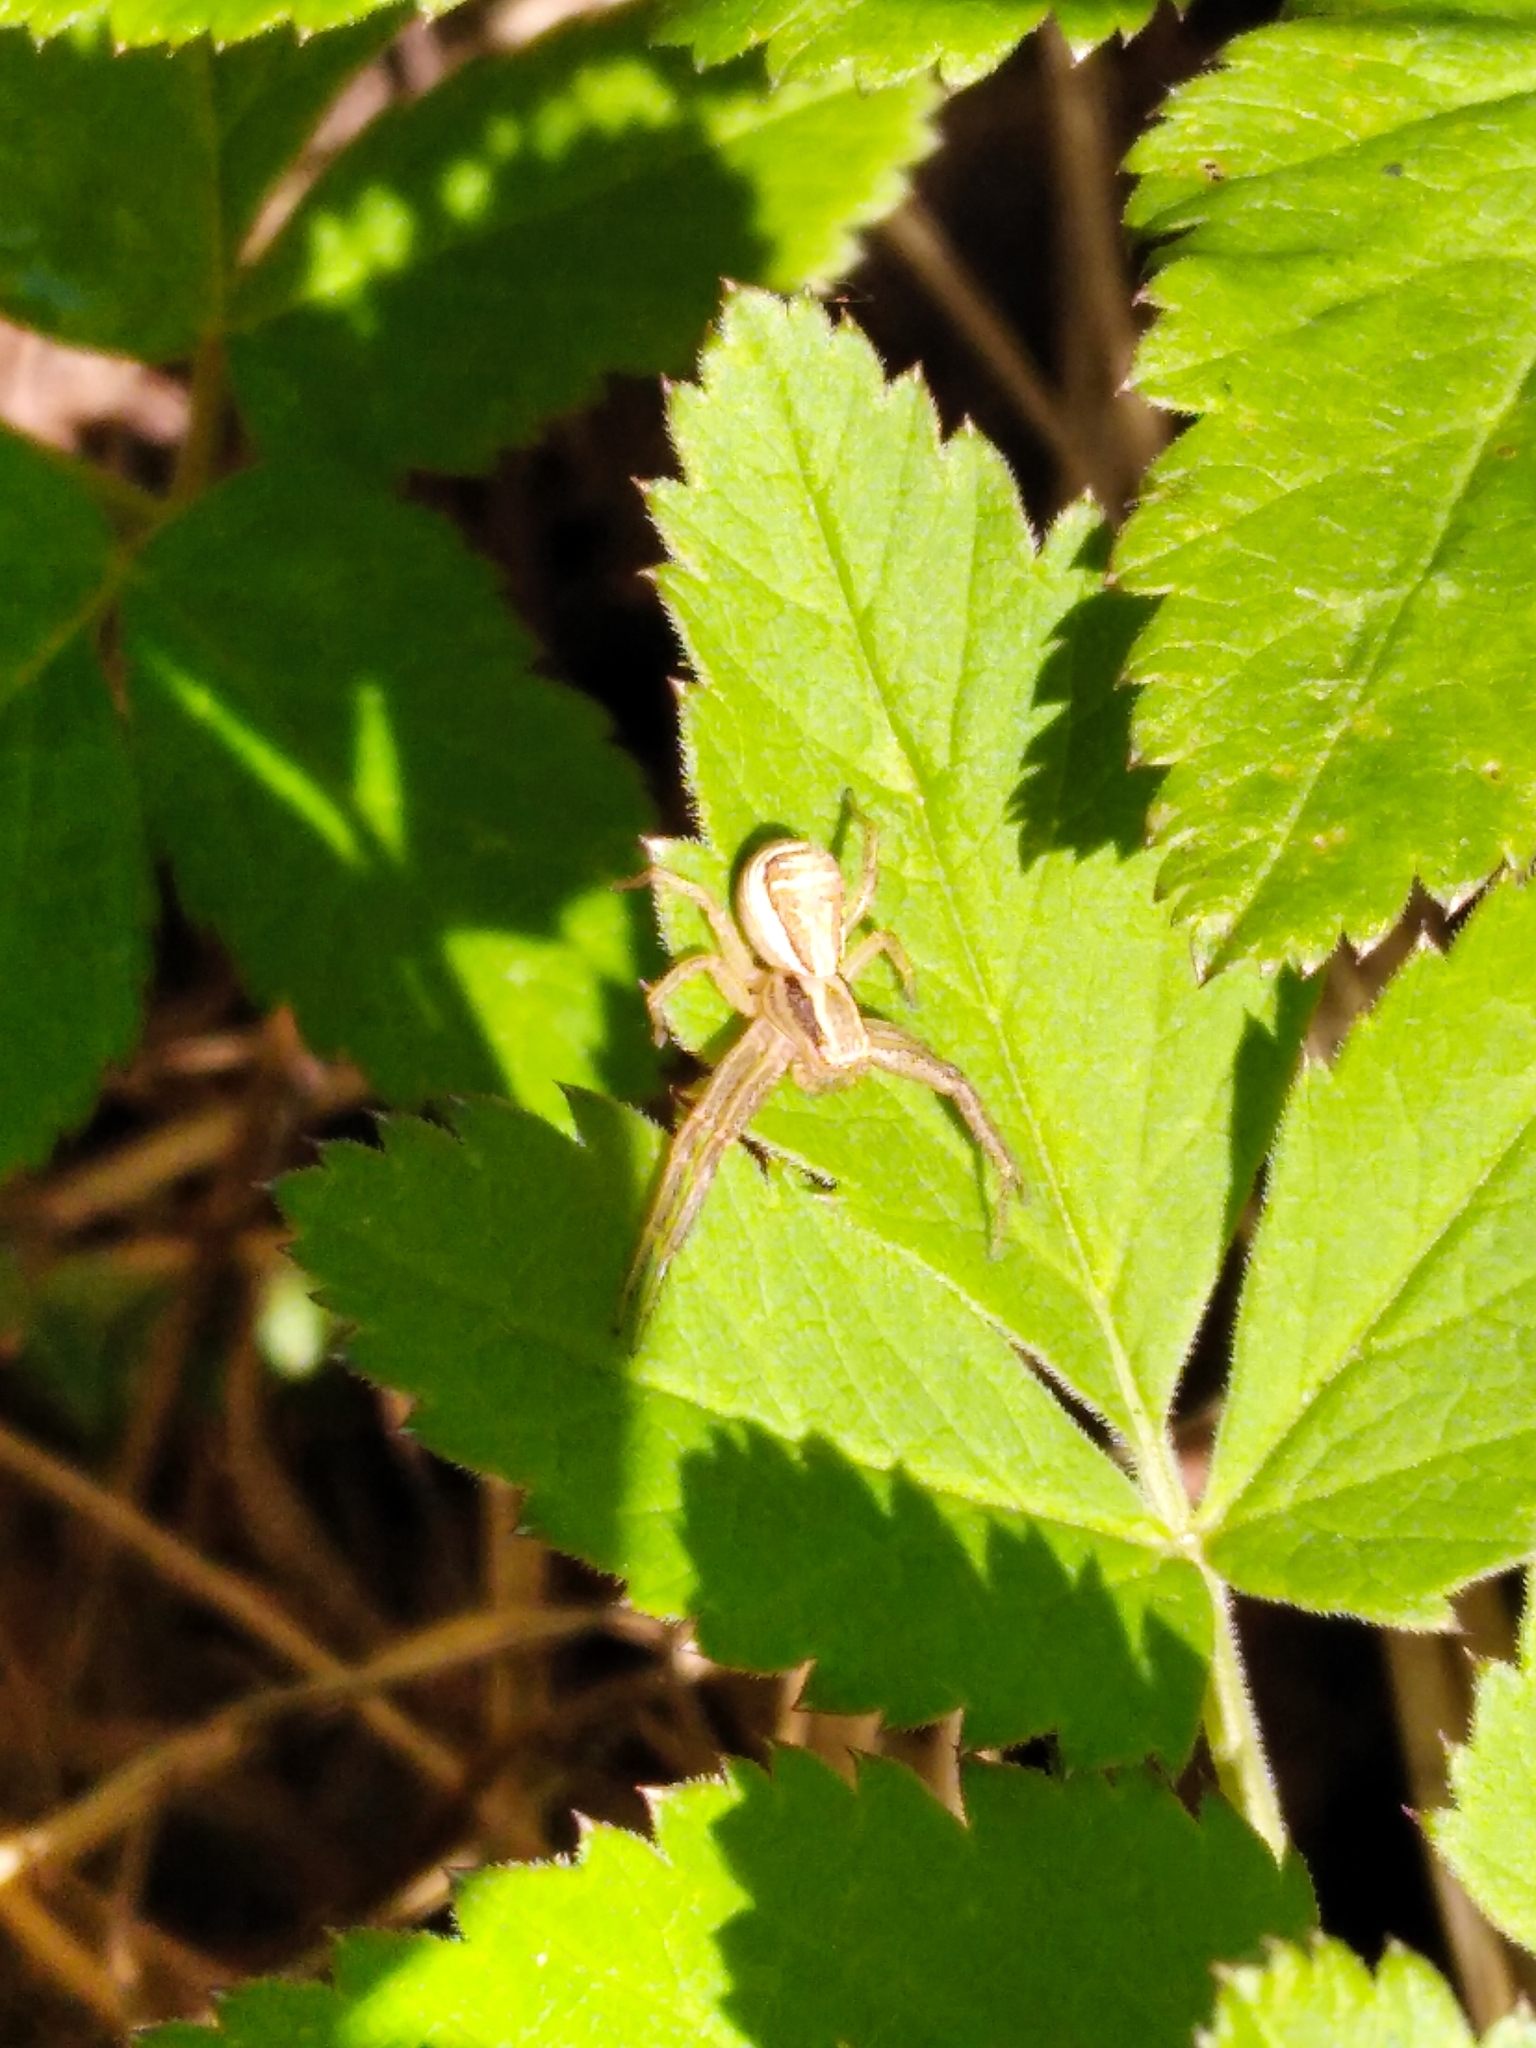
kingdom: Animalia
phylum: Arthropoda
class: Arachnida
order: Araneae
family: Thomisidae
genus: Xysticus
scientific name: Xysticus ulmi
